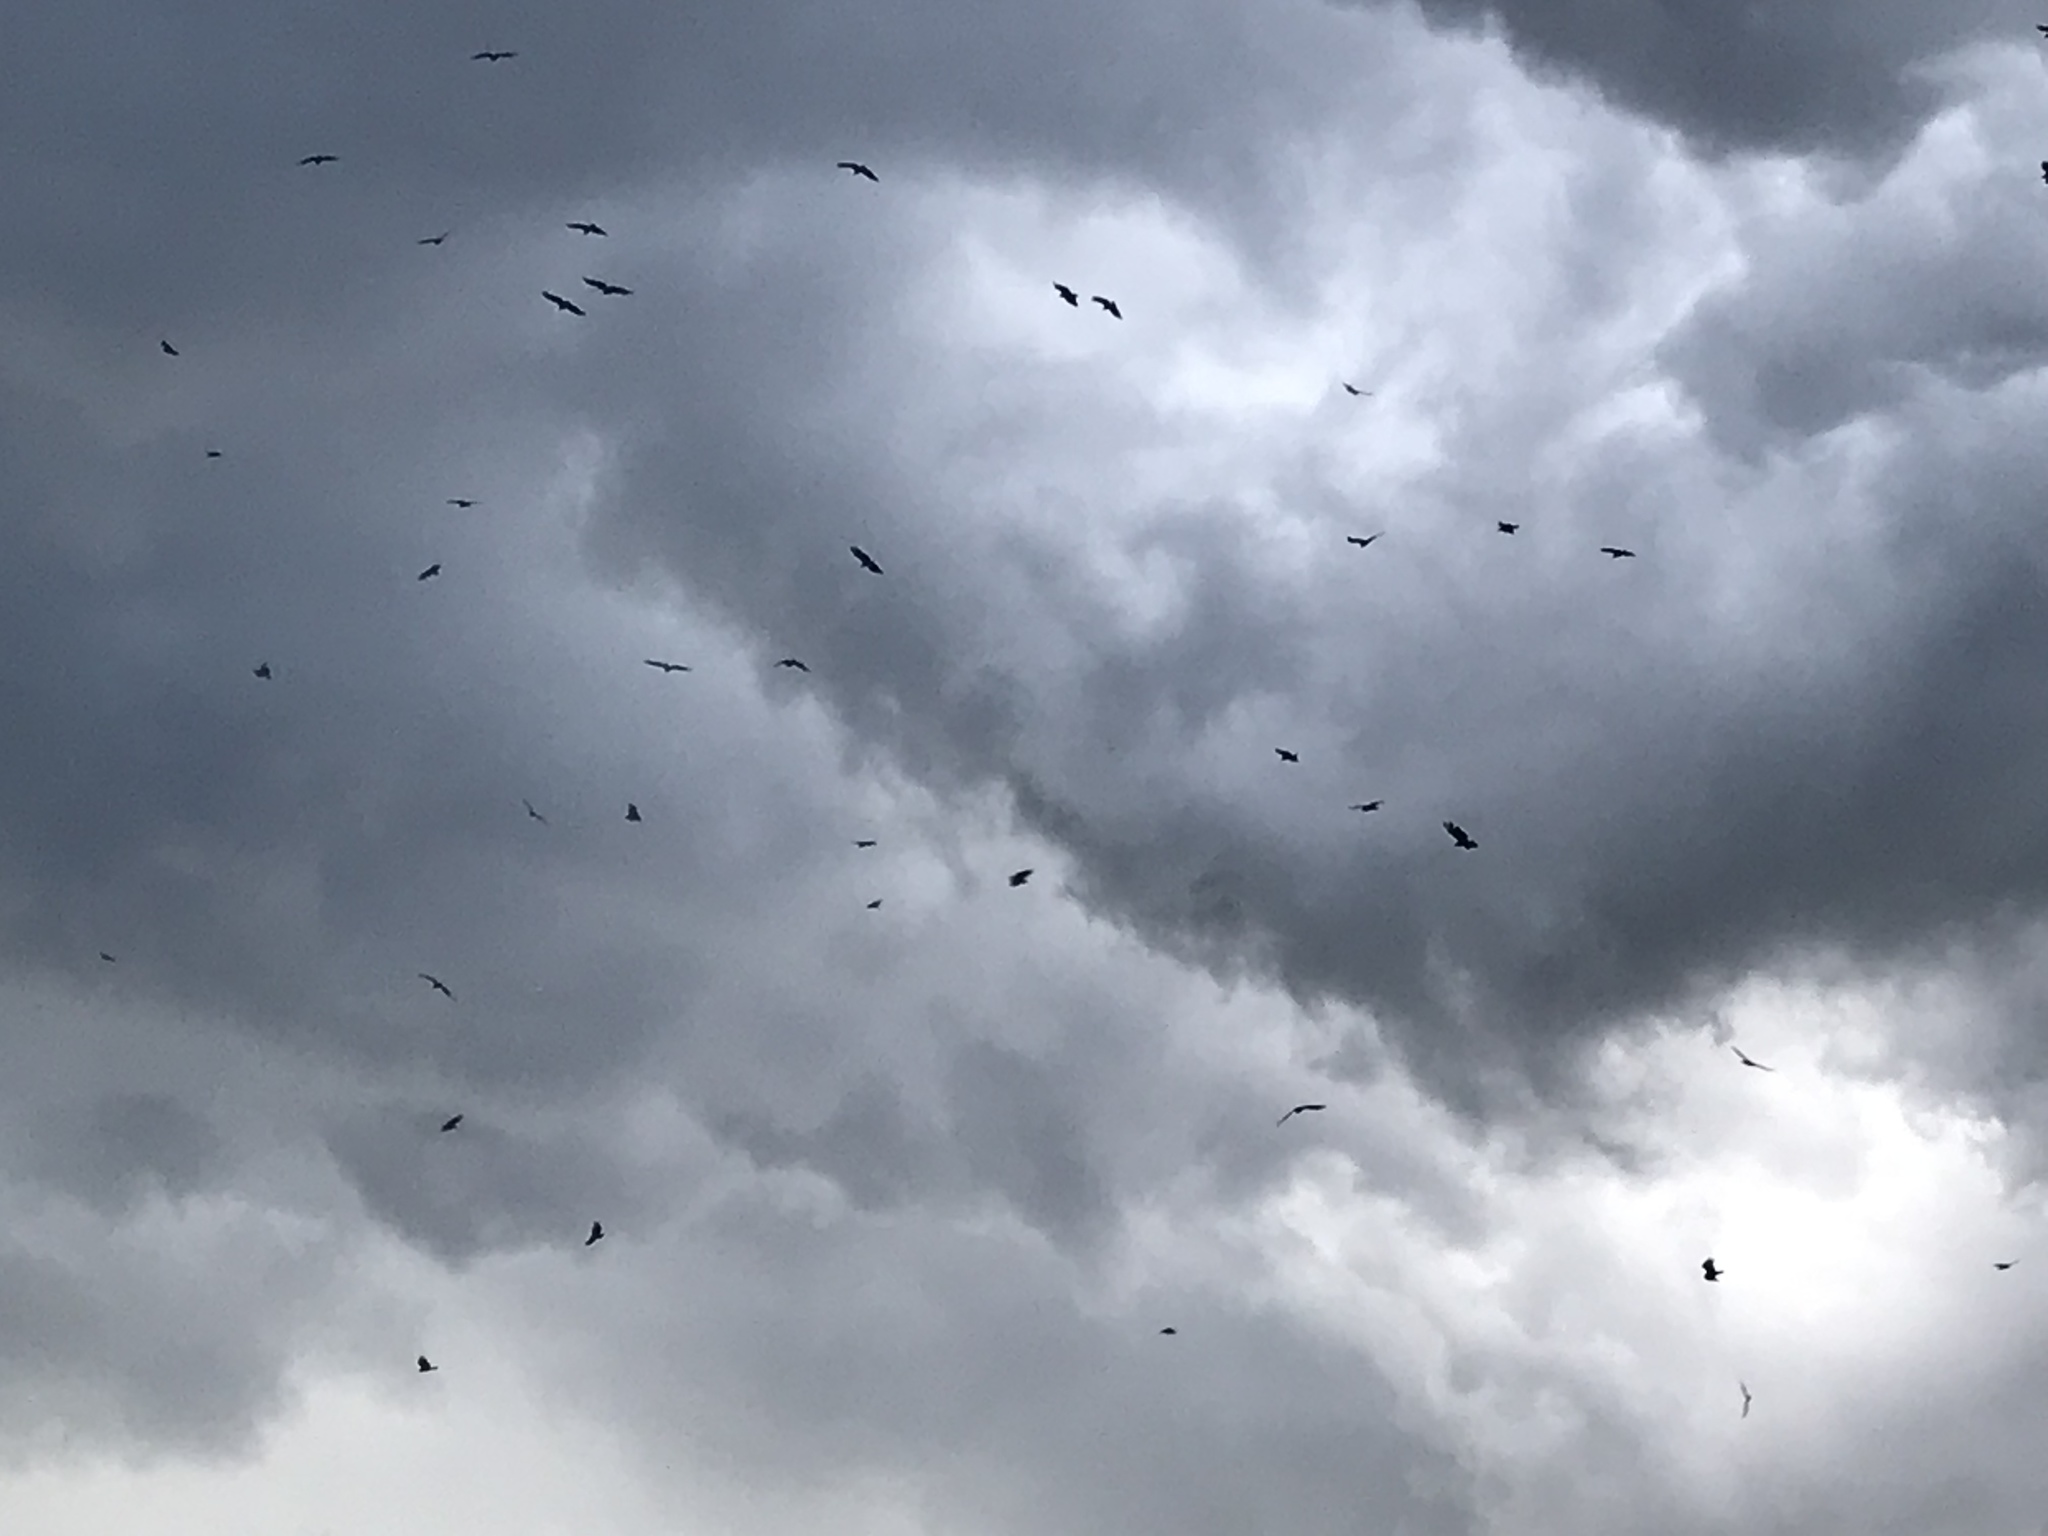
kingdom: Animalia
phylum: Chordata
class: Aves
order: Accipitriformes
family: Cathartidae
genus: Coragyps
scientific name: Coragyps atratus
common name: Black vulture
